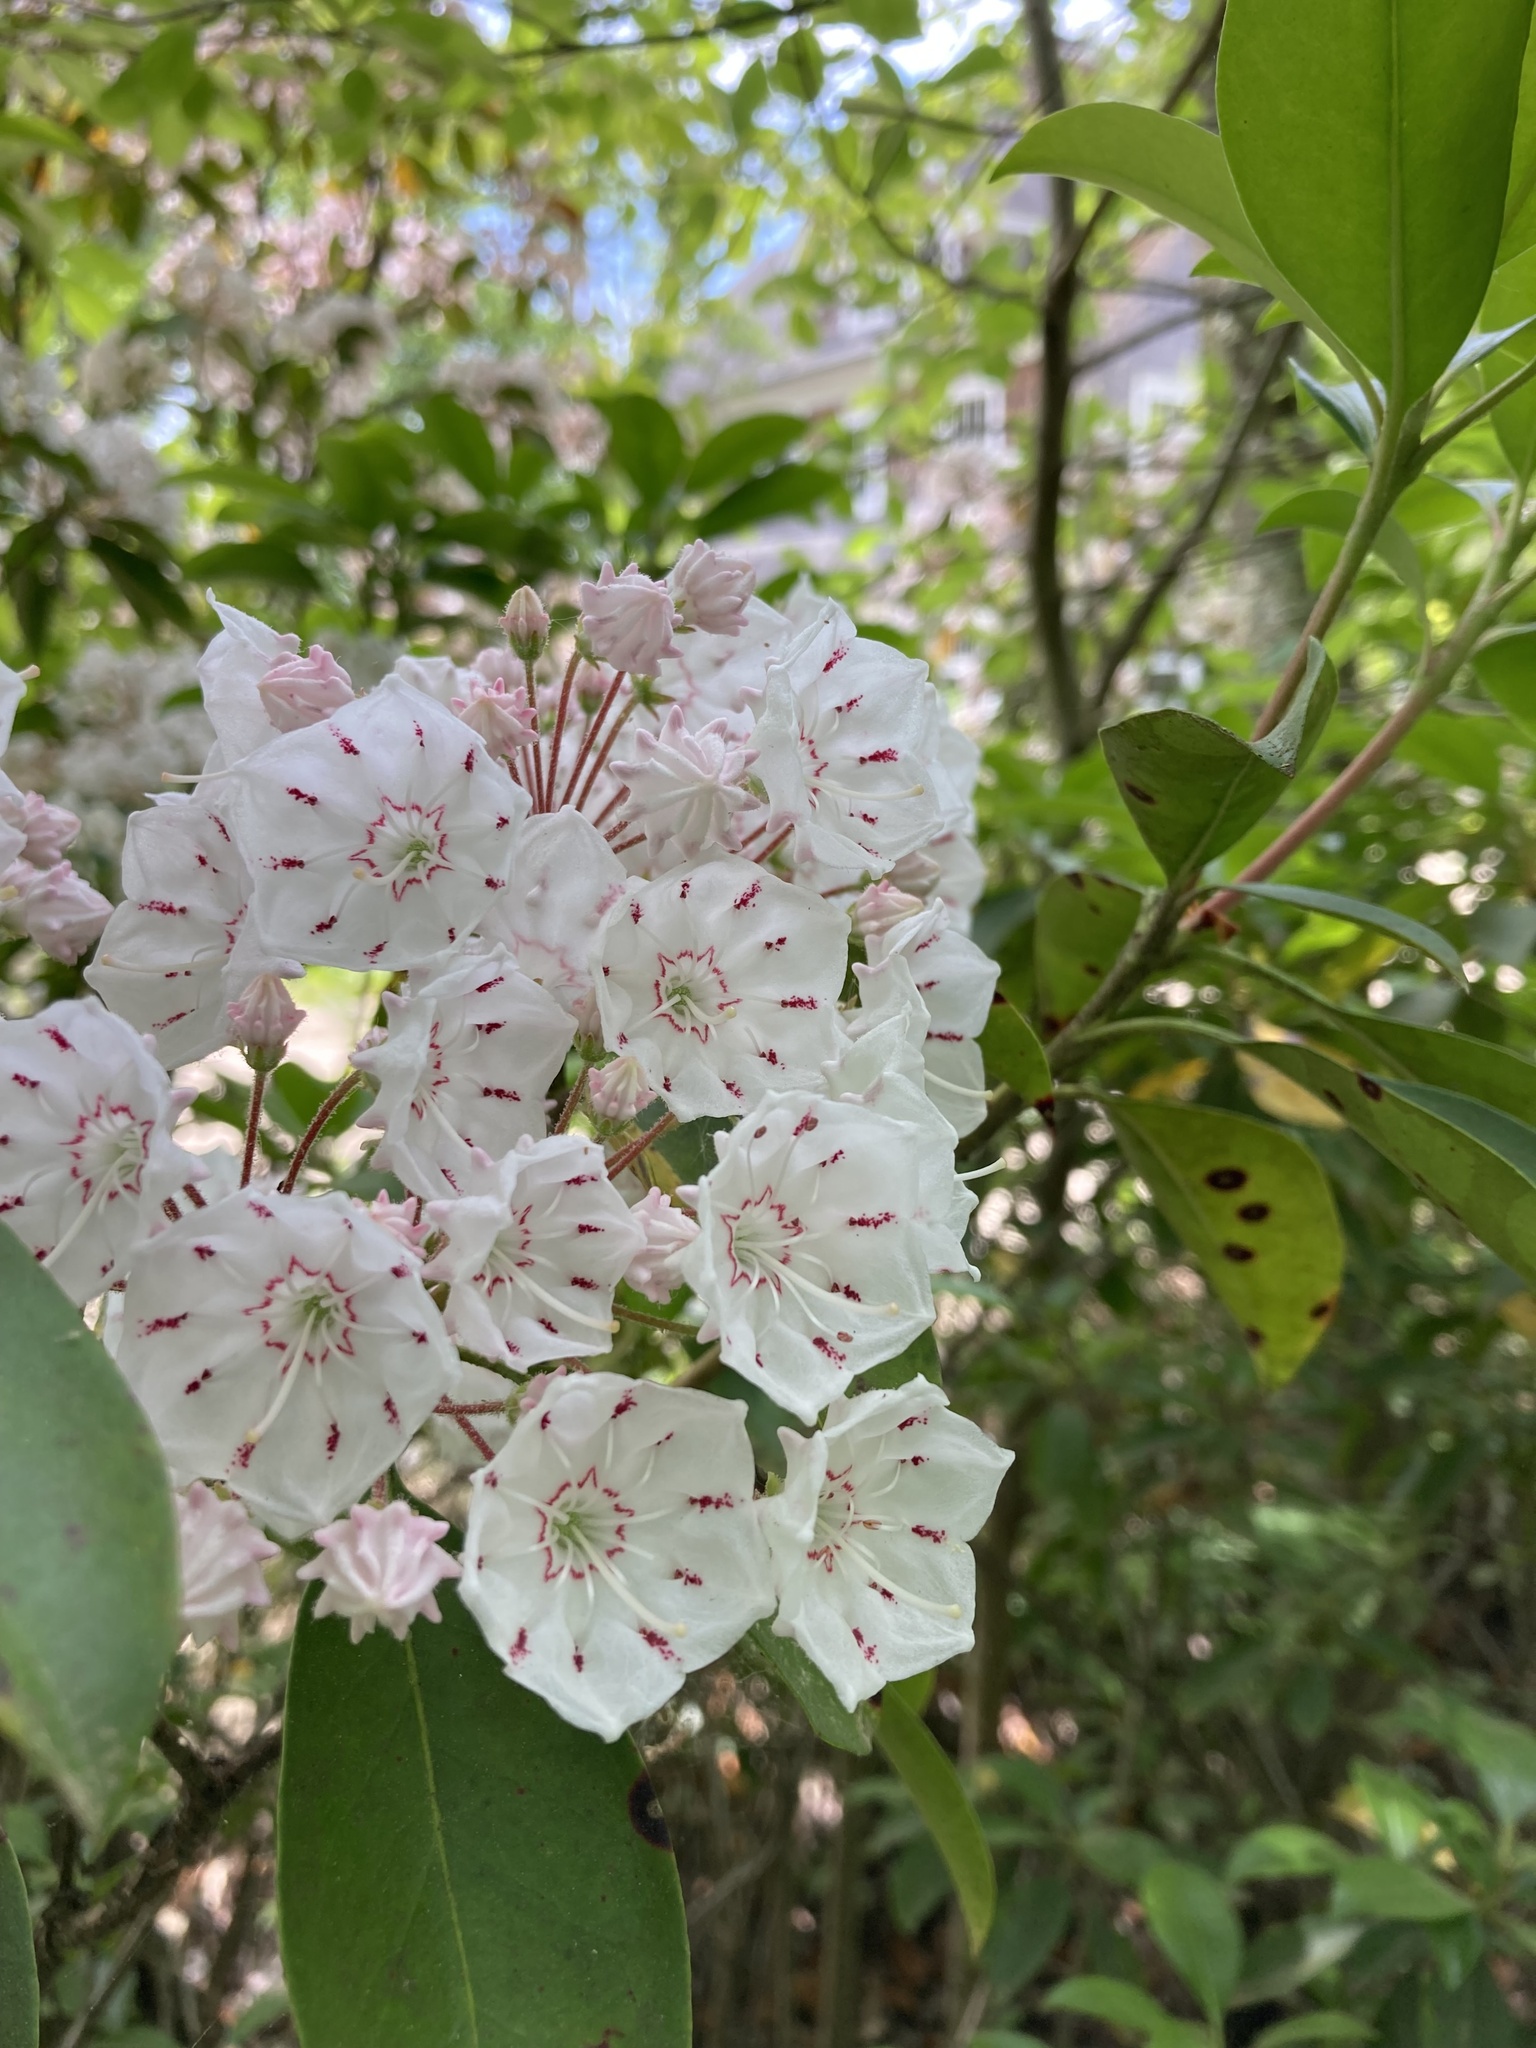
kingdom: Plantae
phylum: Tracheophyta
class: Magnoliopsida
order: Ericales
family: Ericaceae
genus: Kalmia
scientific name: Kalmia latifolia
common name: Mountain-laurel
